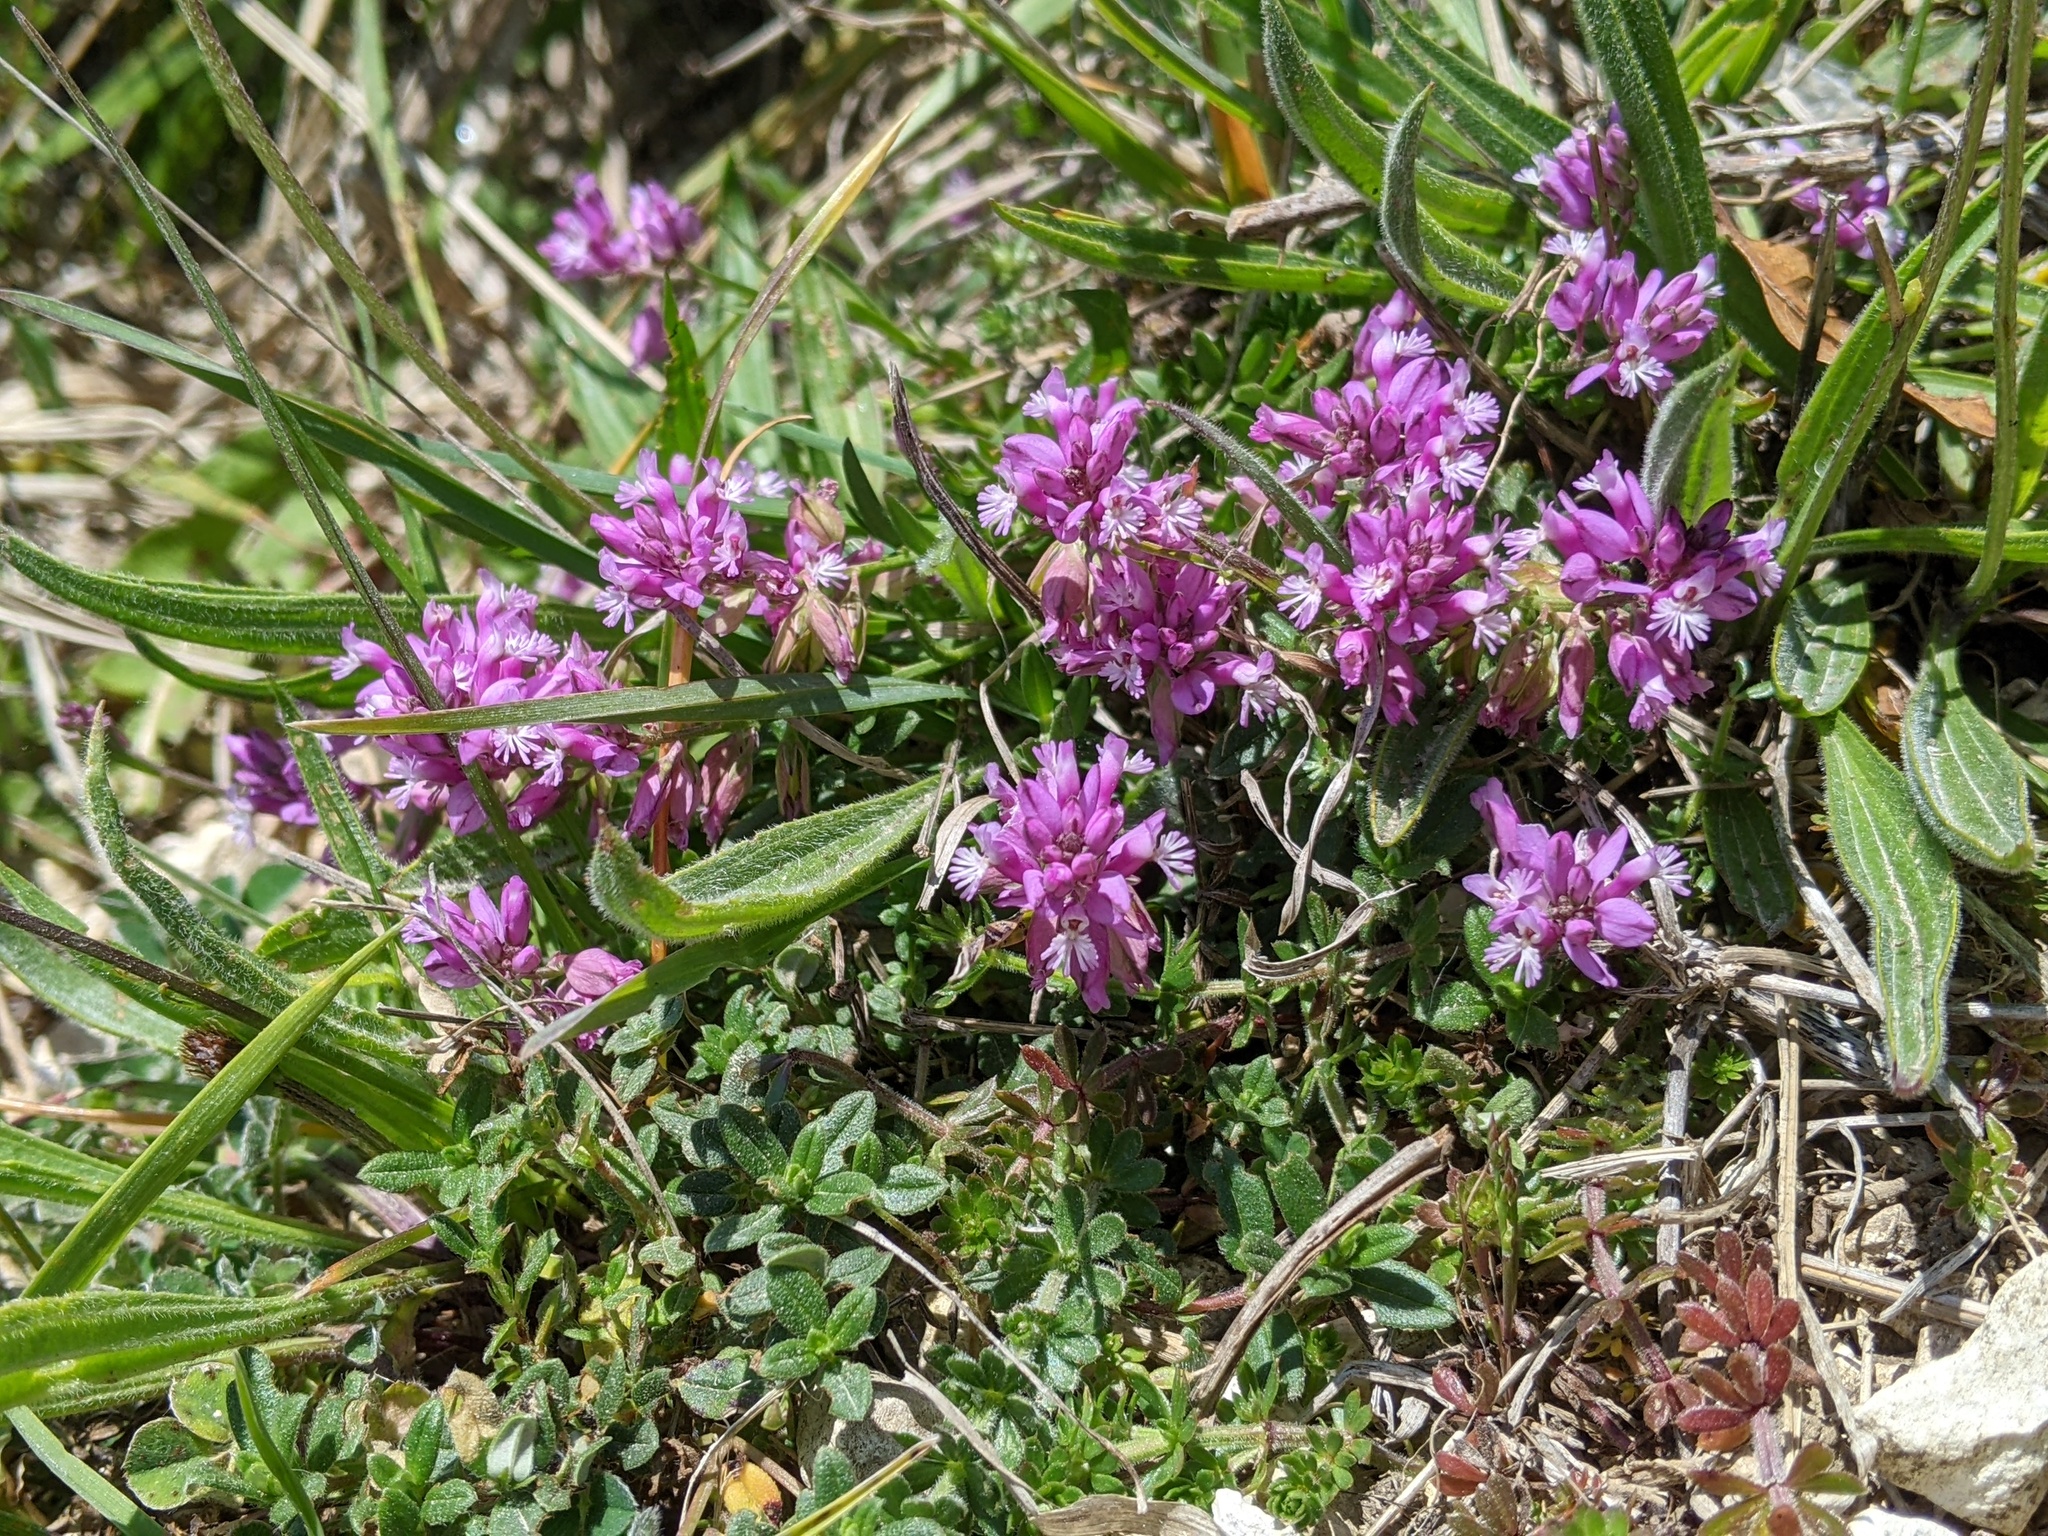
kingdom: Plantae
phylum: Tracheophyta
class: Magnoliopsida
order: Fabales
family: Polygalaceae
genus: Polygala
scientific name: Polygala vulgaris
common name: Common milkwort
